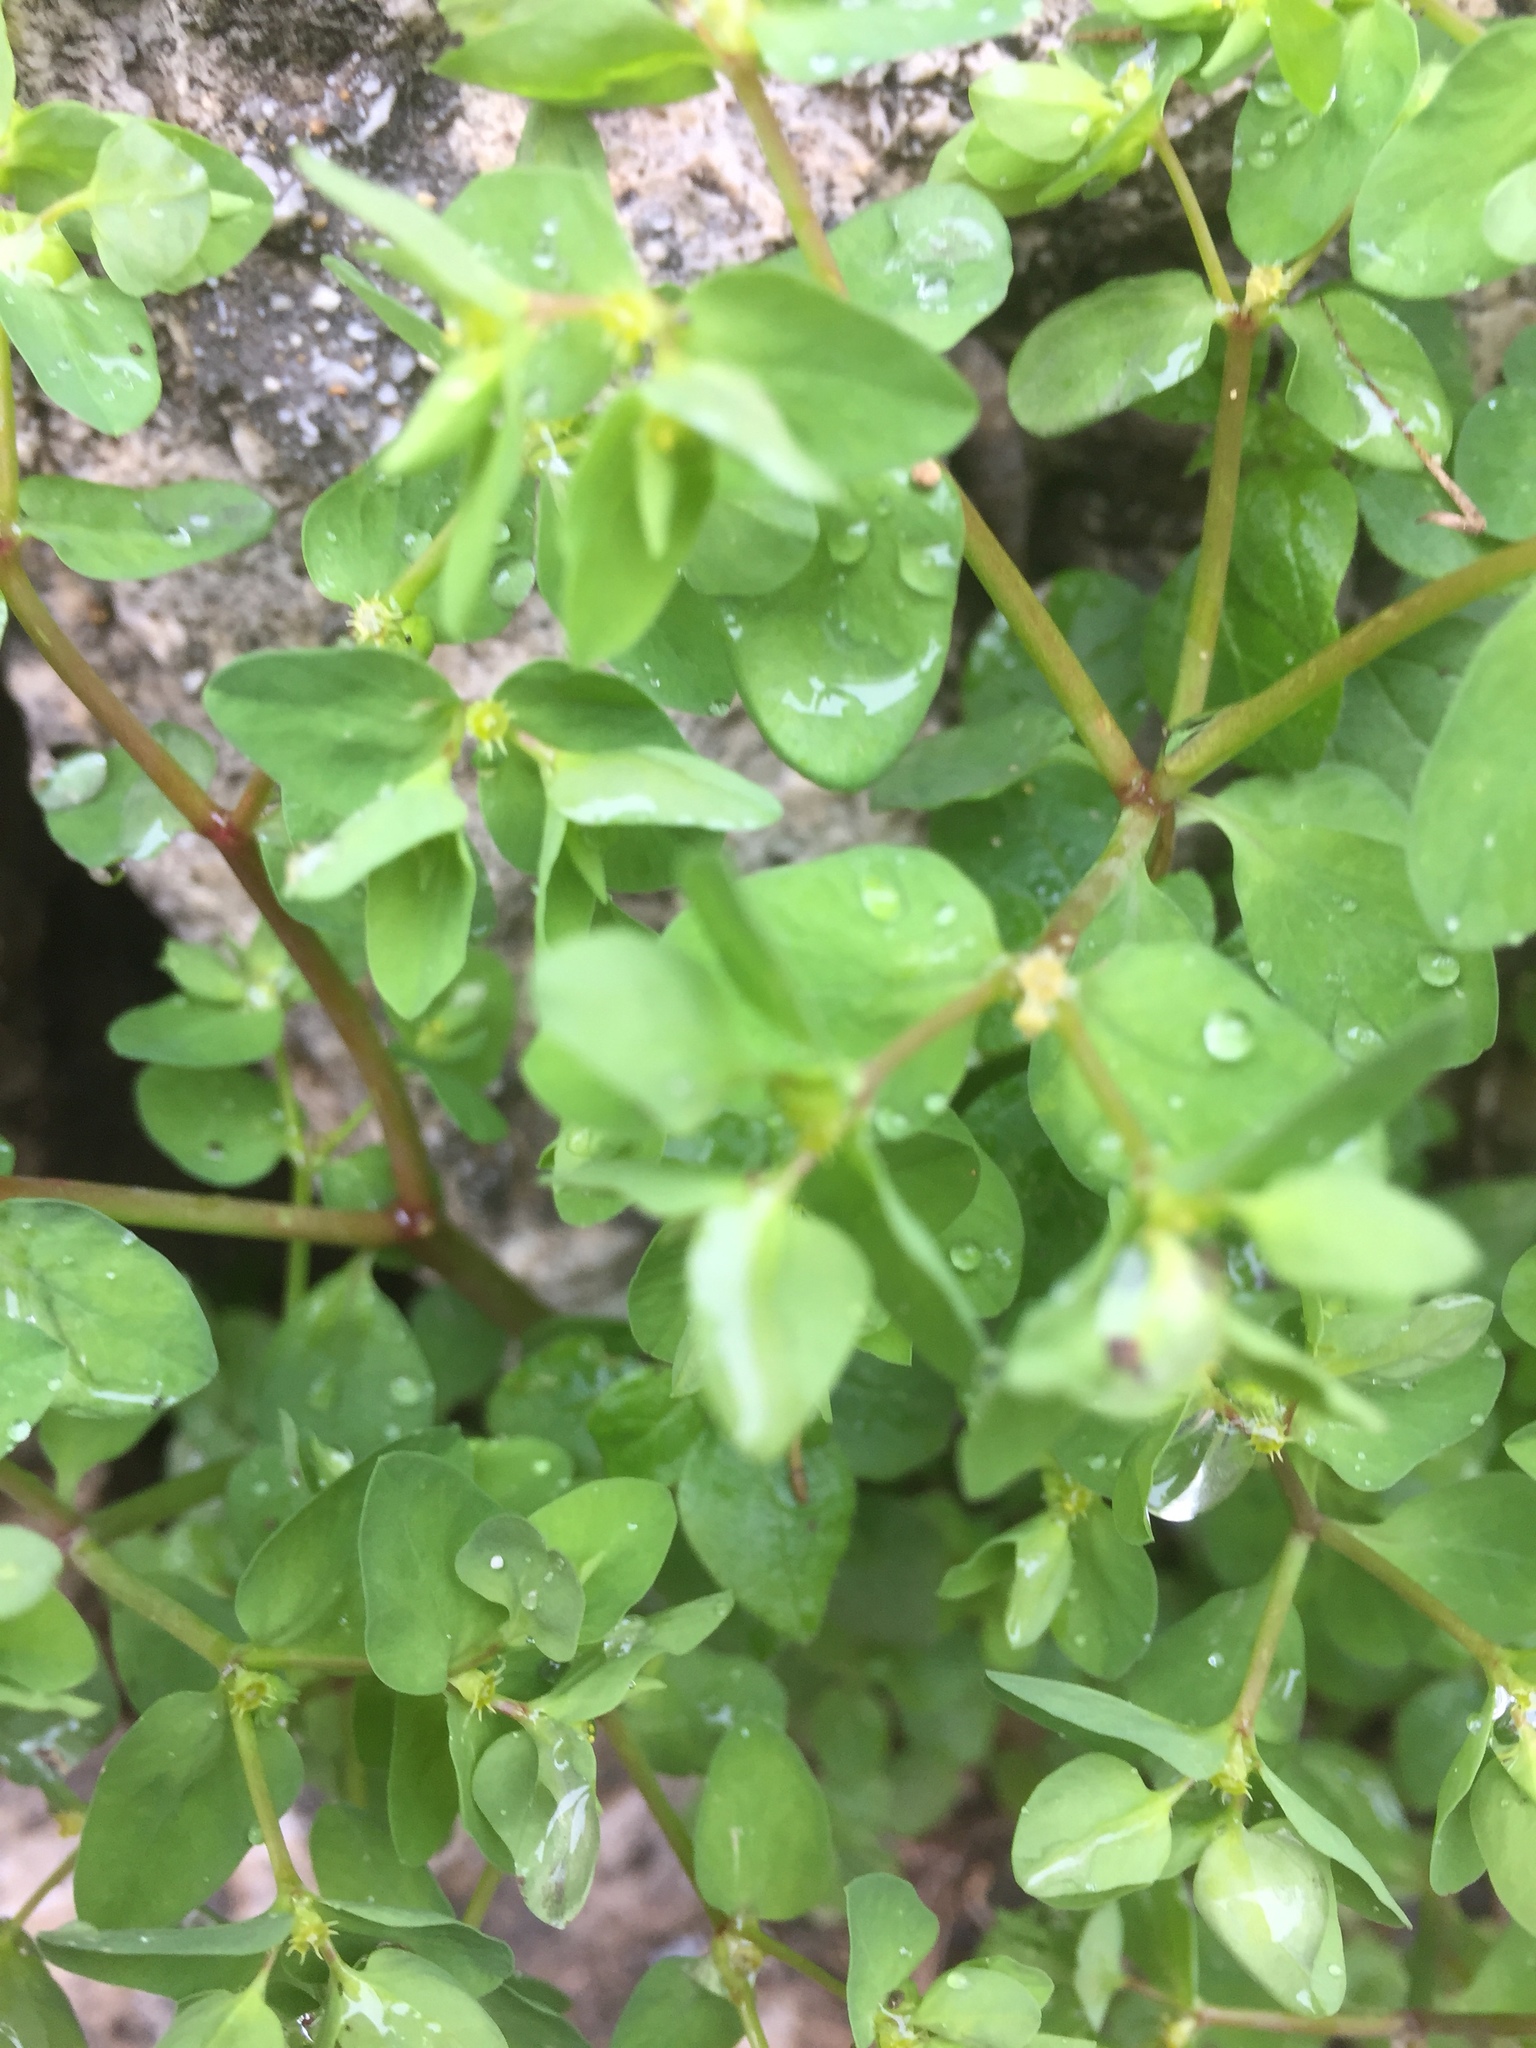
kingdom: Plantae
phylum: Tracheophyta
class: Magnoliopsida
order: Malpighiales
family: Euphorbiaceae
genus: Euphorbia
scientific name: Euphorbia peplus
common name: Petty spurge
